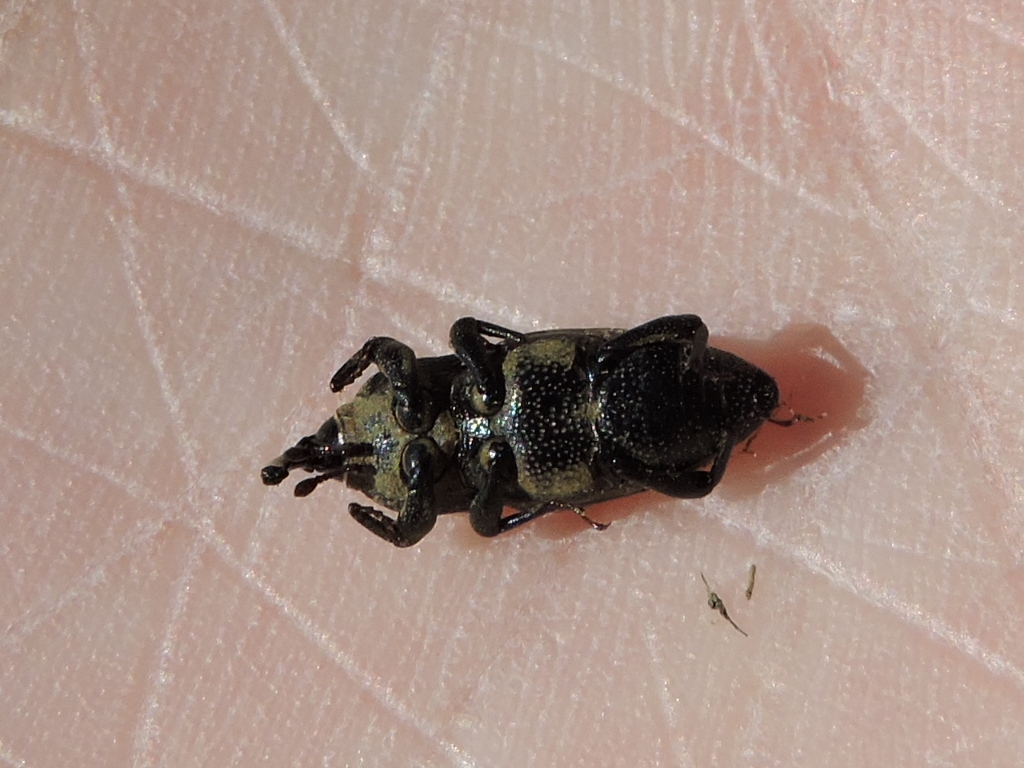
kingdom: Animalia
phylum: Arthropoda
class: Insecta
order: Coleoptera
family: Dryophthoridae
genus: Sphenophorus
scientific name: Sphenophorus venatus
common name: Hunting billbug
